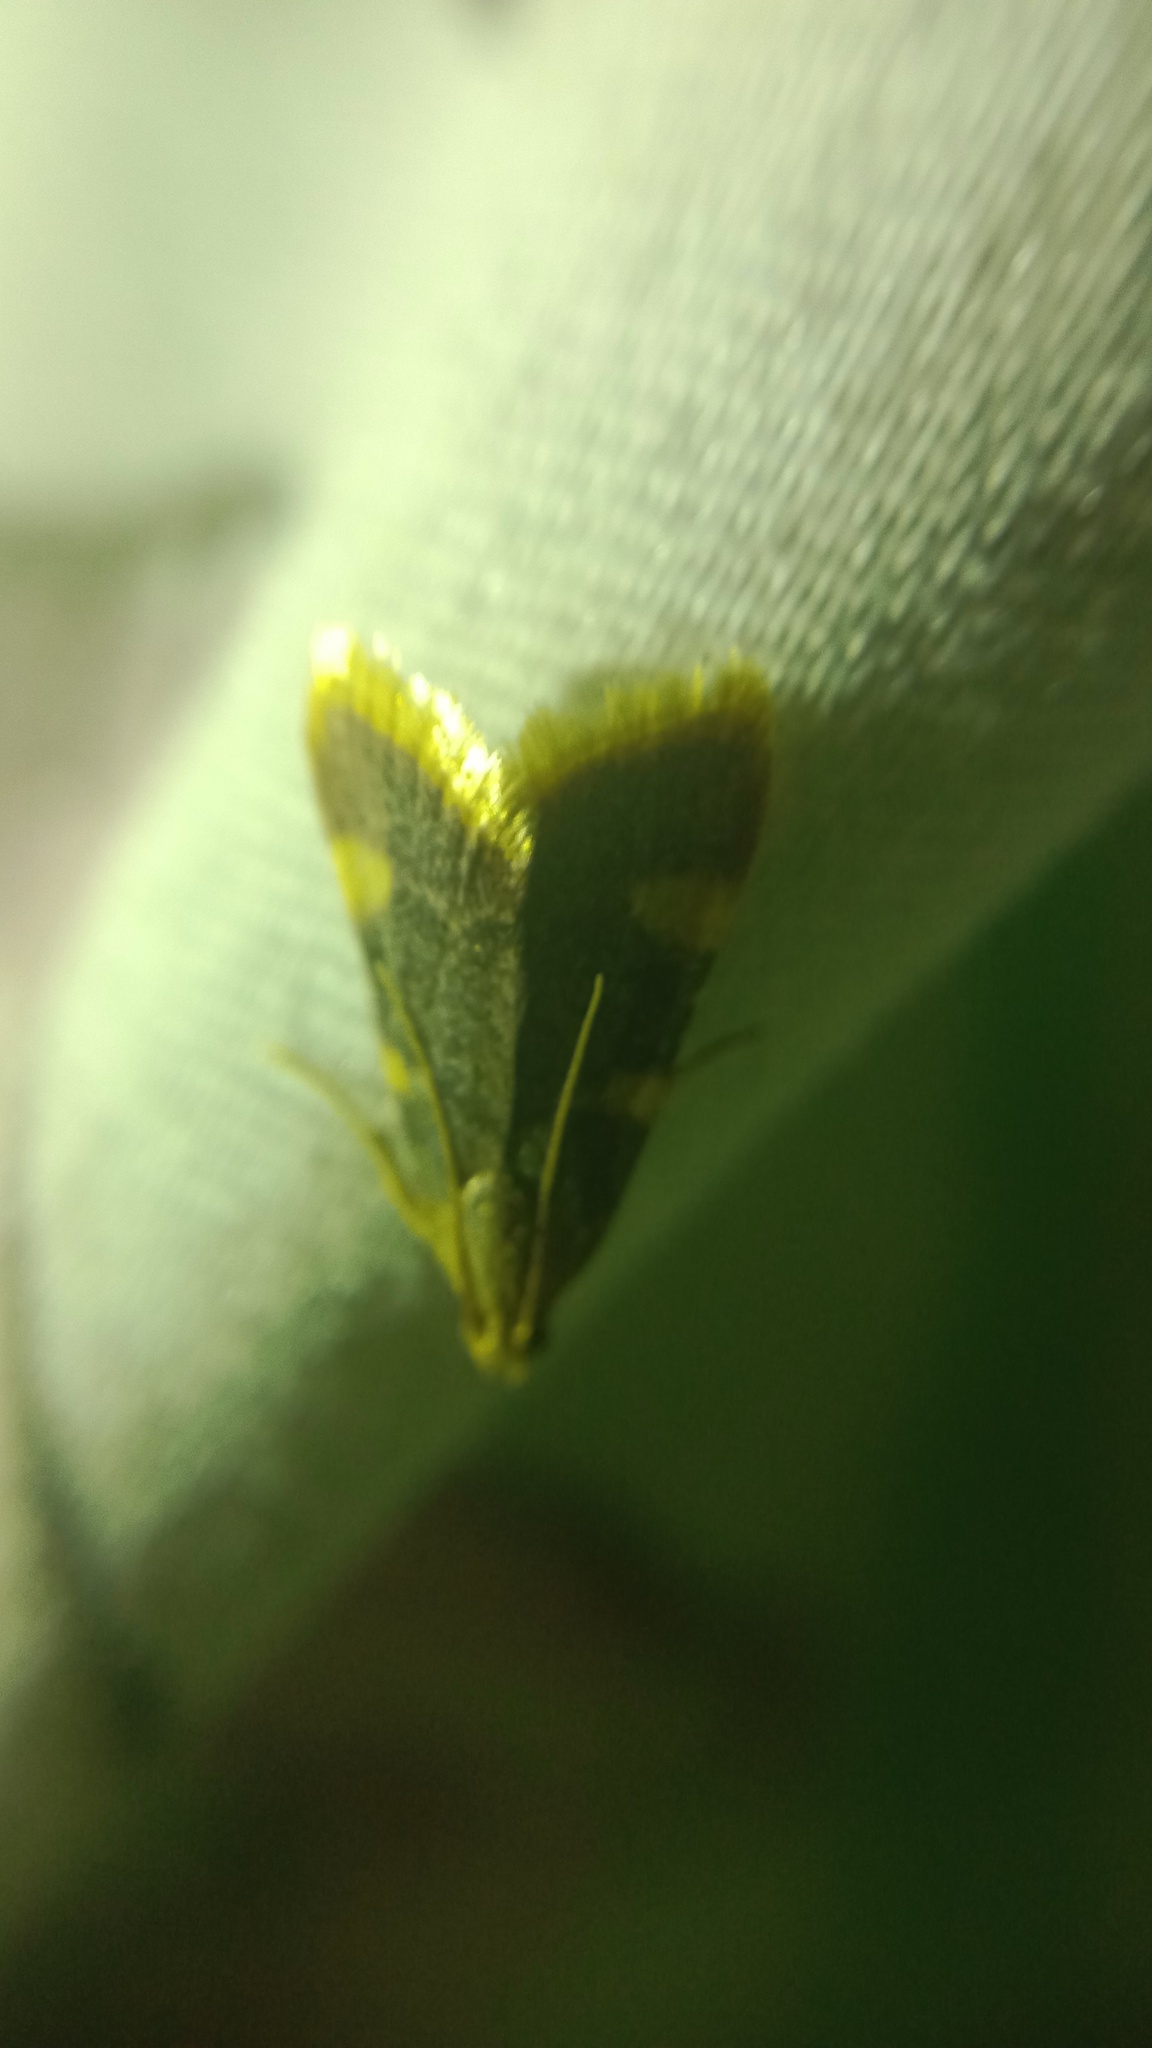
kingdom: Animalia
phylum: Arthropoda
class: Insecta
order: Lepidoptera
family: Pyralidae
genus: Hypsopygia
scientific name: Hypsopygia costalis
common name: Gold triangle
